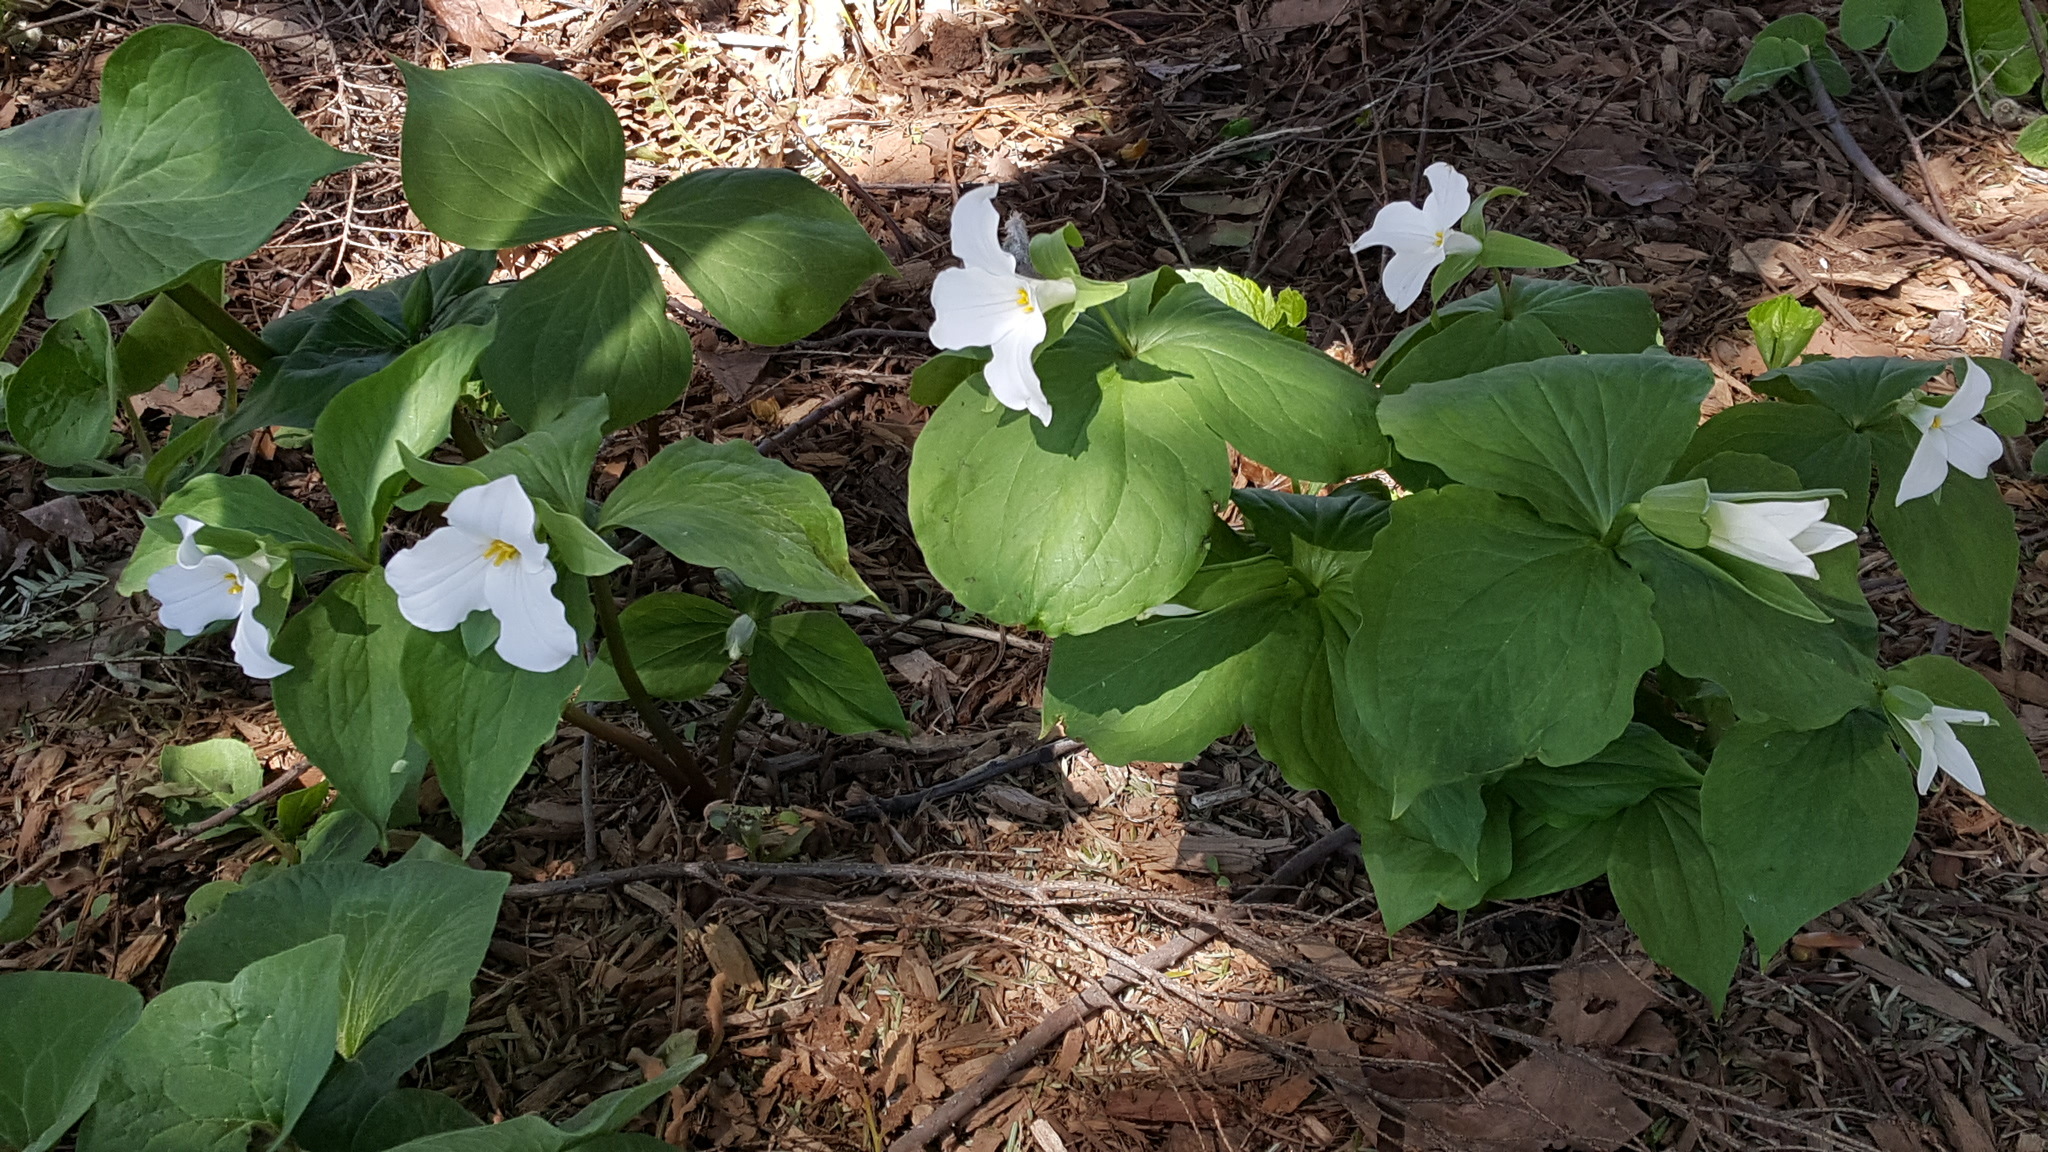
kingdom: Plantae
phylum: Tracheophyta
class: Liliopsida
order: Liliales
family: Melanthiaceae
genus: Trillium
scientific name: Trillium grandiflorum
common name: Great white trillium
